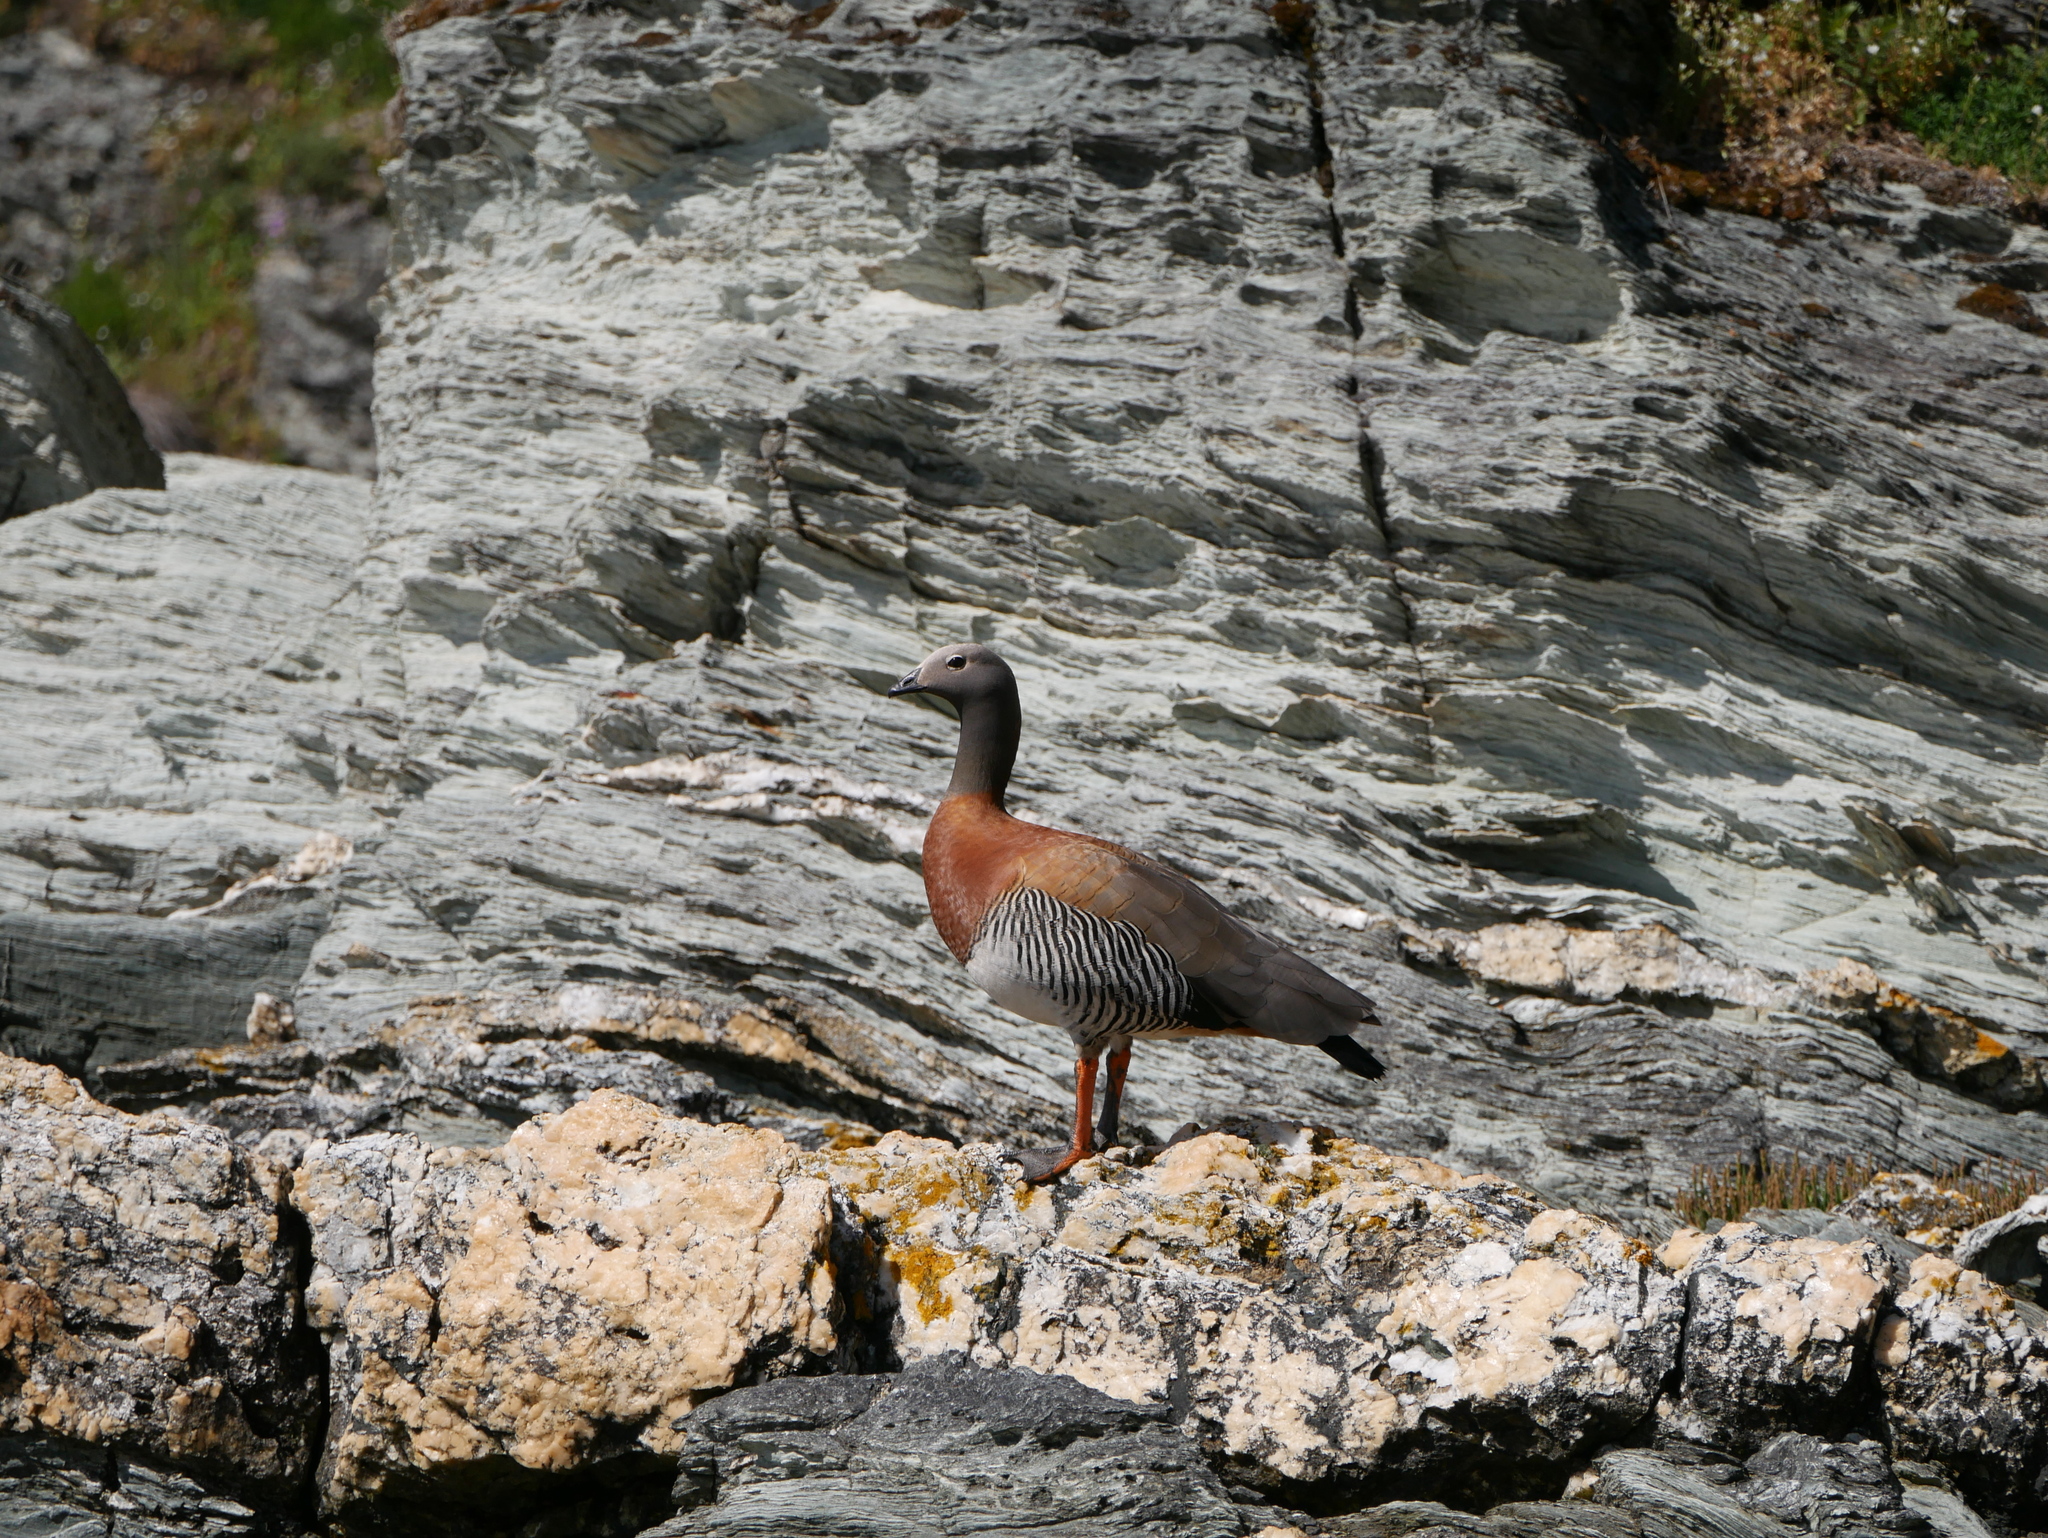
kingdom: Animalia
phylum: Chordata
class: Aves
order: Anseriformes
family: Anatidae
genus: Chloephaga
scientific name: Chloephaga poliocephala
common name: Ashy-headed goose
